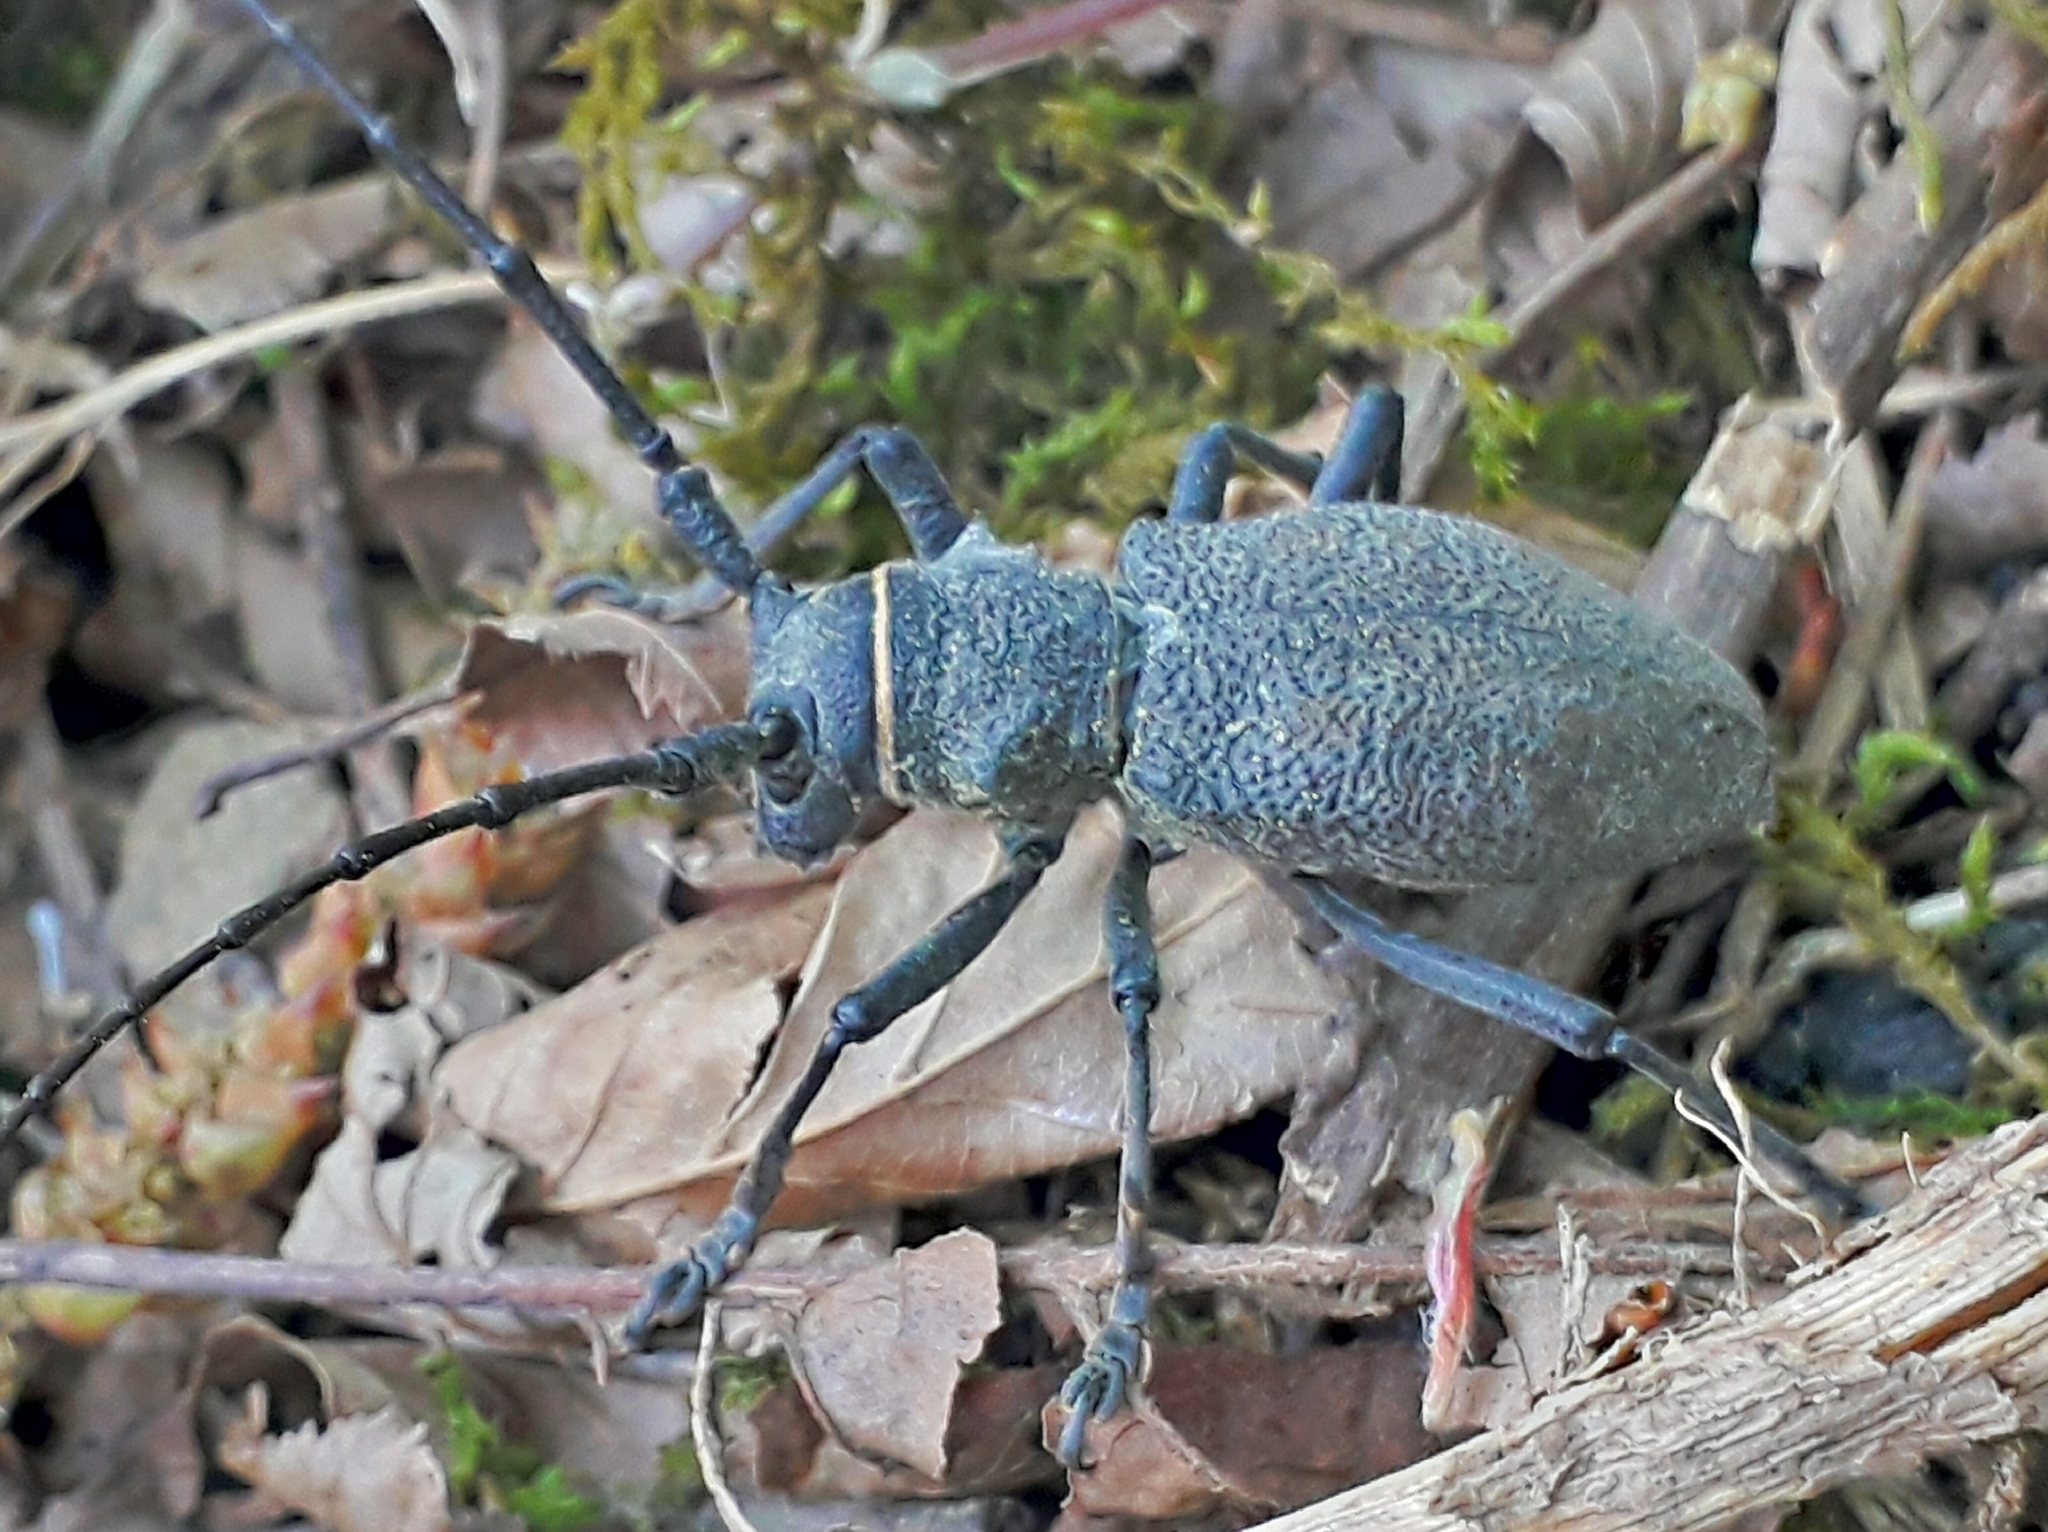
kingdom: Animalia
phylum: Arthropoda
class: Insecta
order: Coleoptera
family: Cerambycidae
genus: Morimus
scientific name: Morimus verecundus
